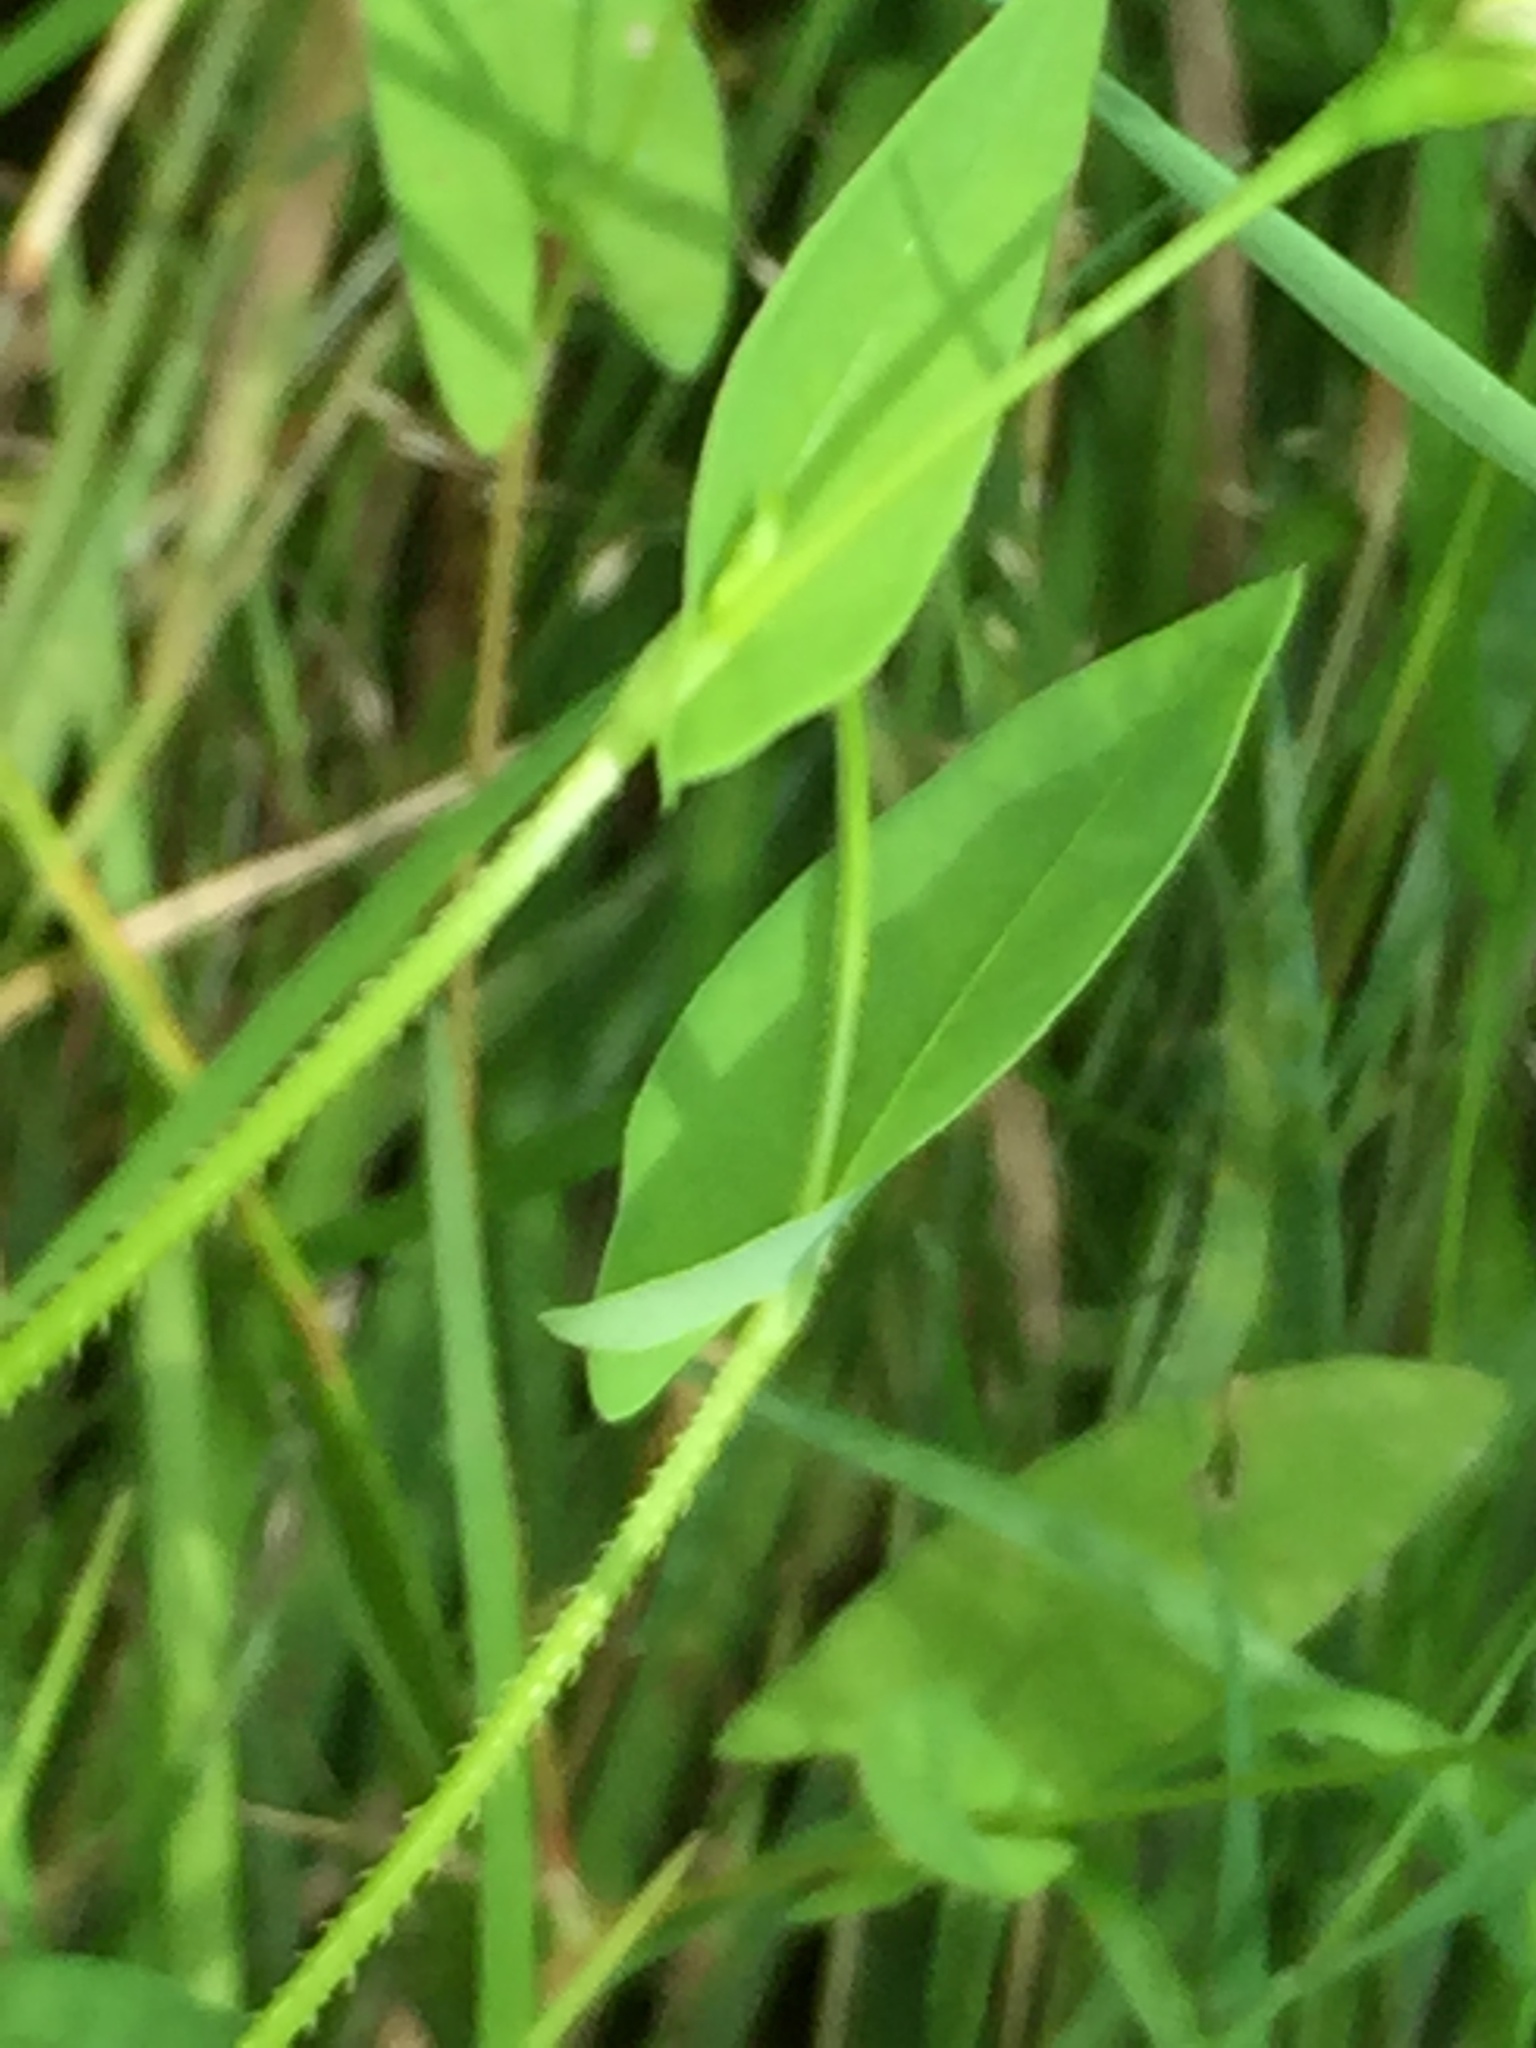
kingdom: Plantae
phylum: Tracheophyta
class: Magnoliopsida
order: Caryophyllales
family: Polygonaceae
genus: Persicaria
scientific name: Persicaria sagittata
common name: American tearthumb
